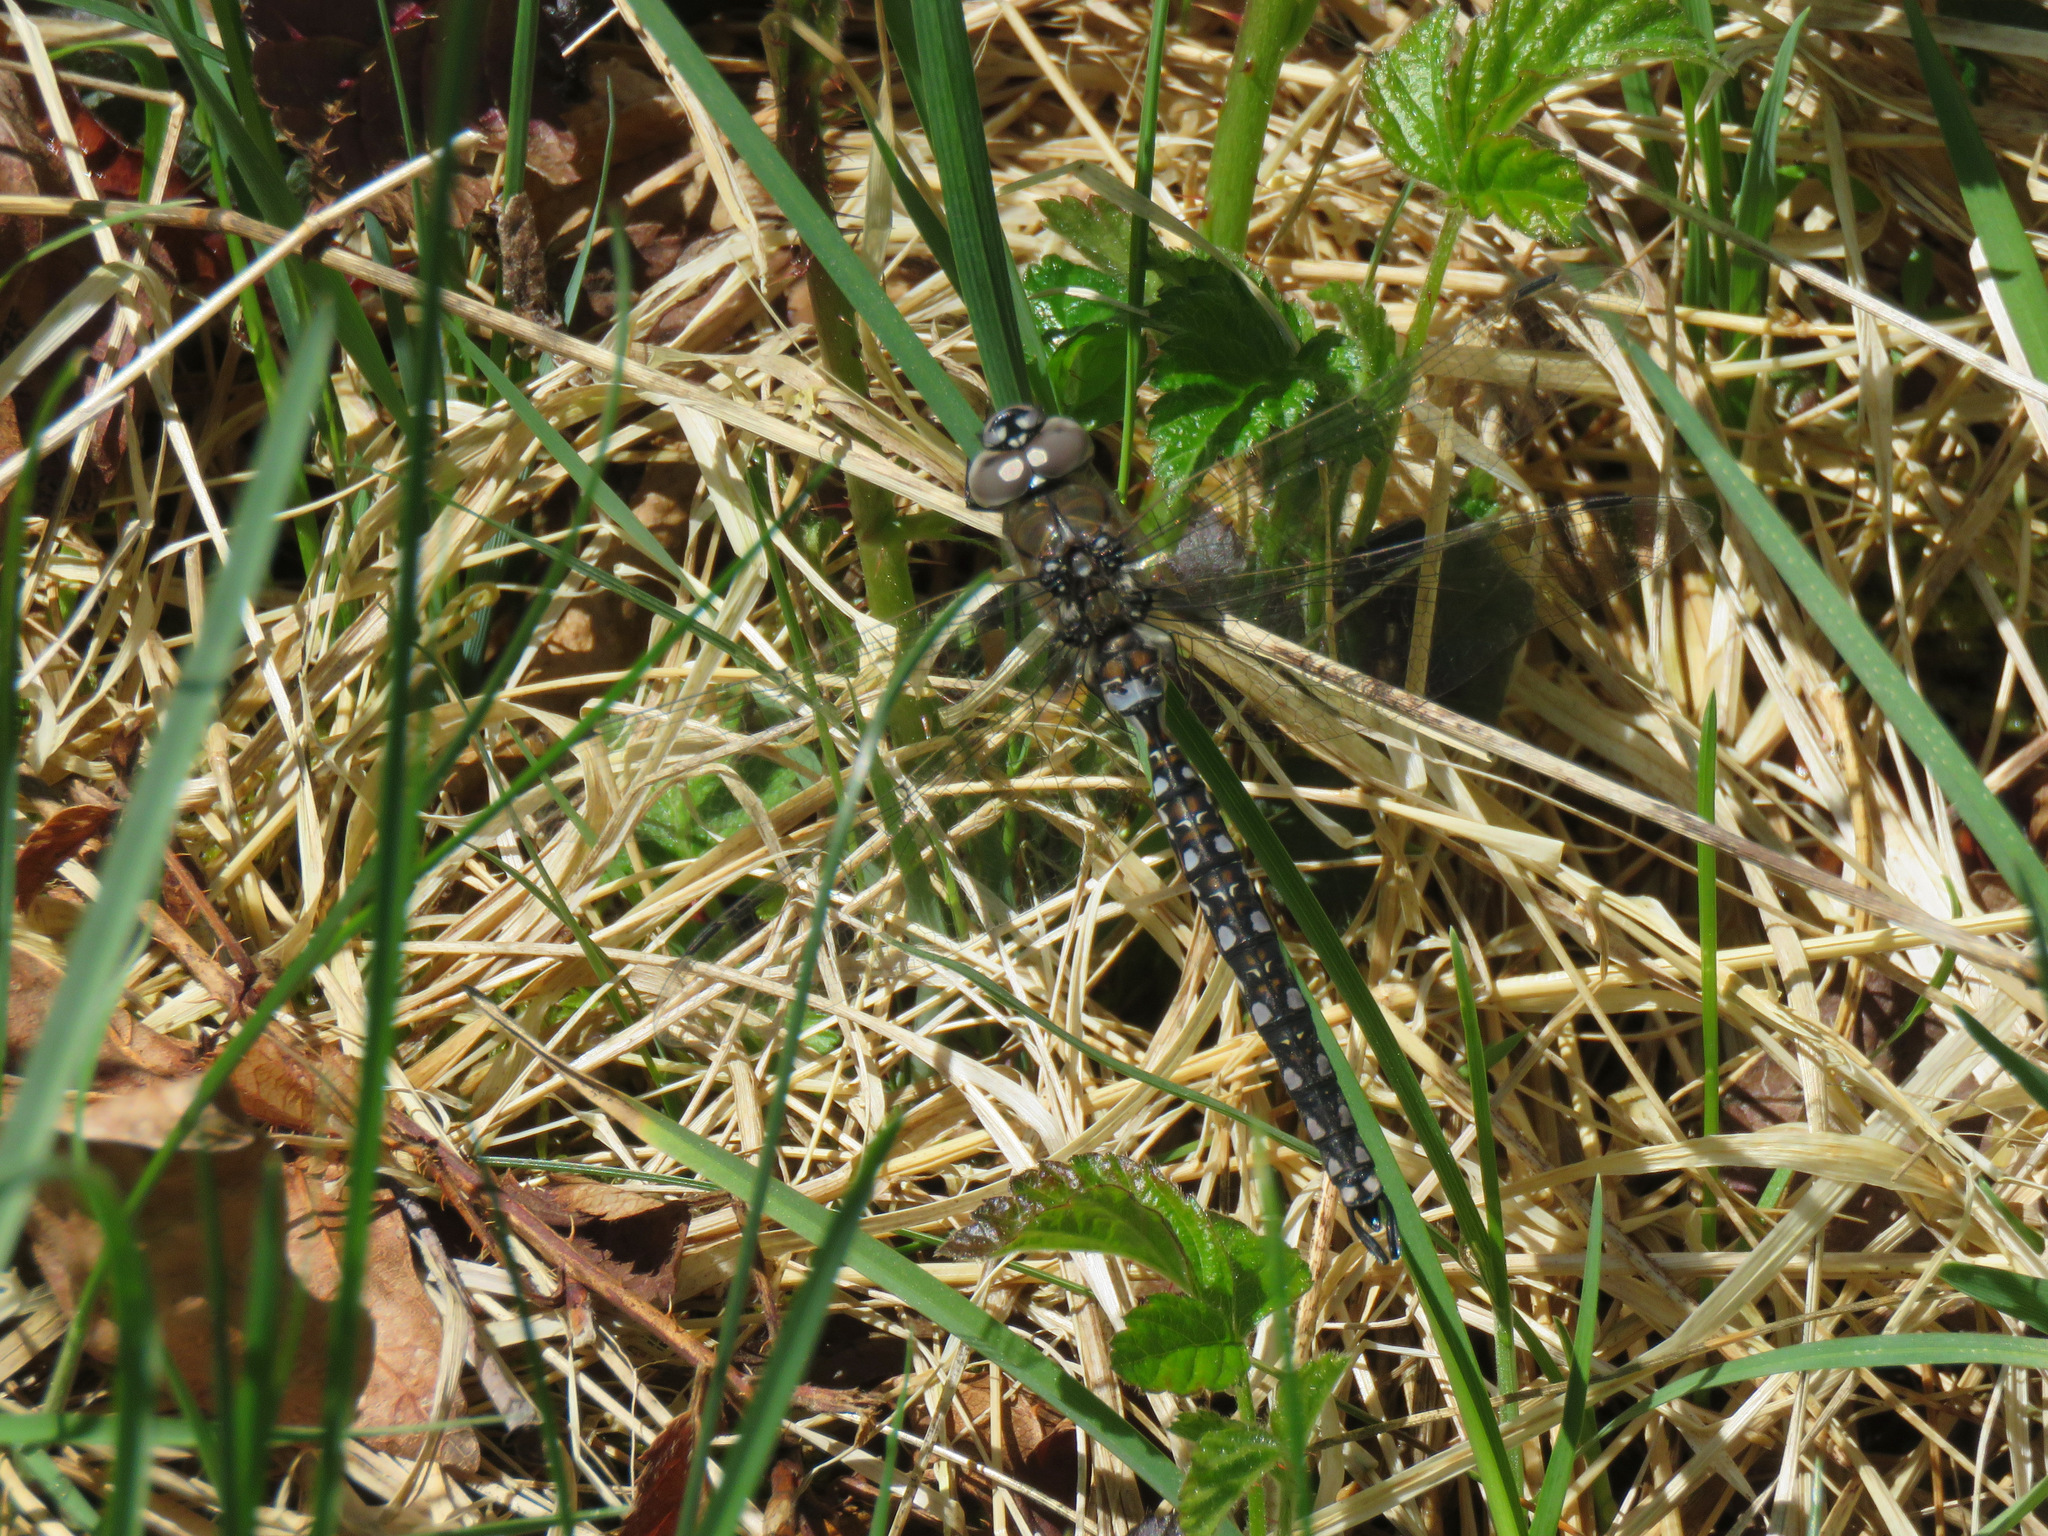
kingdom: Animalia
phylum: Arthropoda
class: Insecta
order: Odonata
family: Aeshnidae
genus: Rhionaeschna
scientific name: Rhionaeschna californica
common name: California darner
